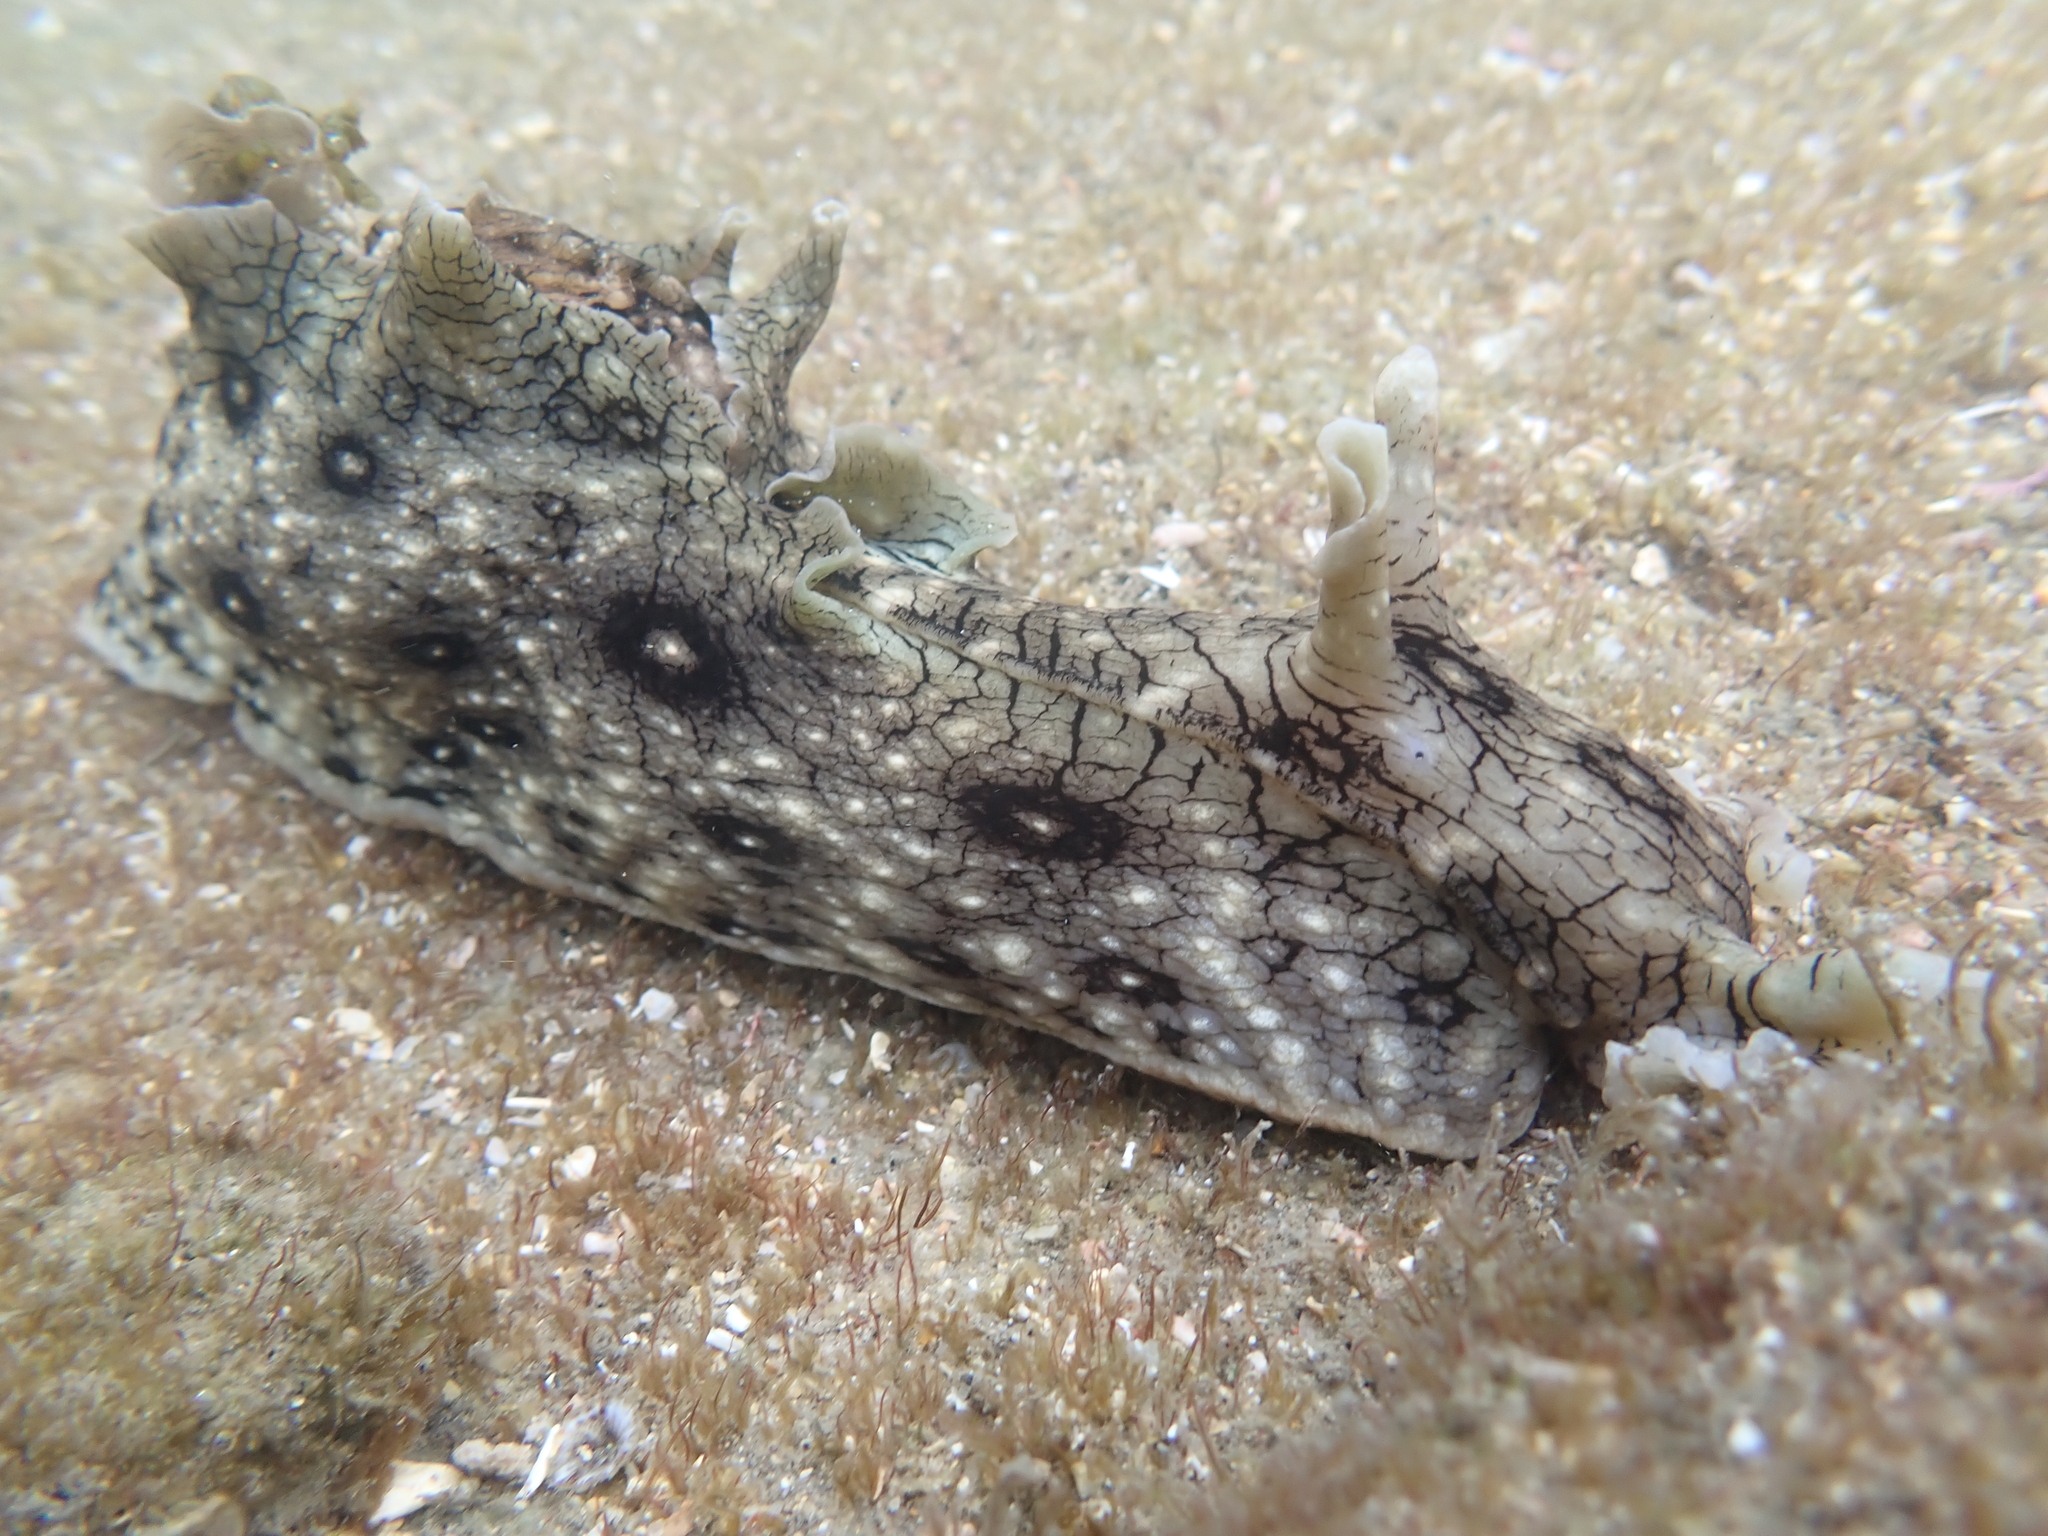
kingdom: Animalia
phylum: Mollusca
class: Gastropoda
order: Aplysiida
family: Aplysiidae
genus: Aplysia
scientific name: Aplysia argus
